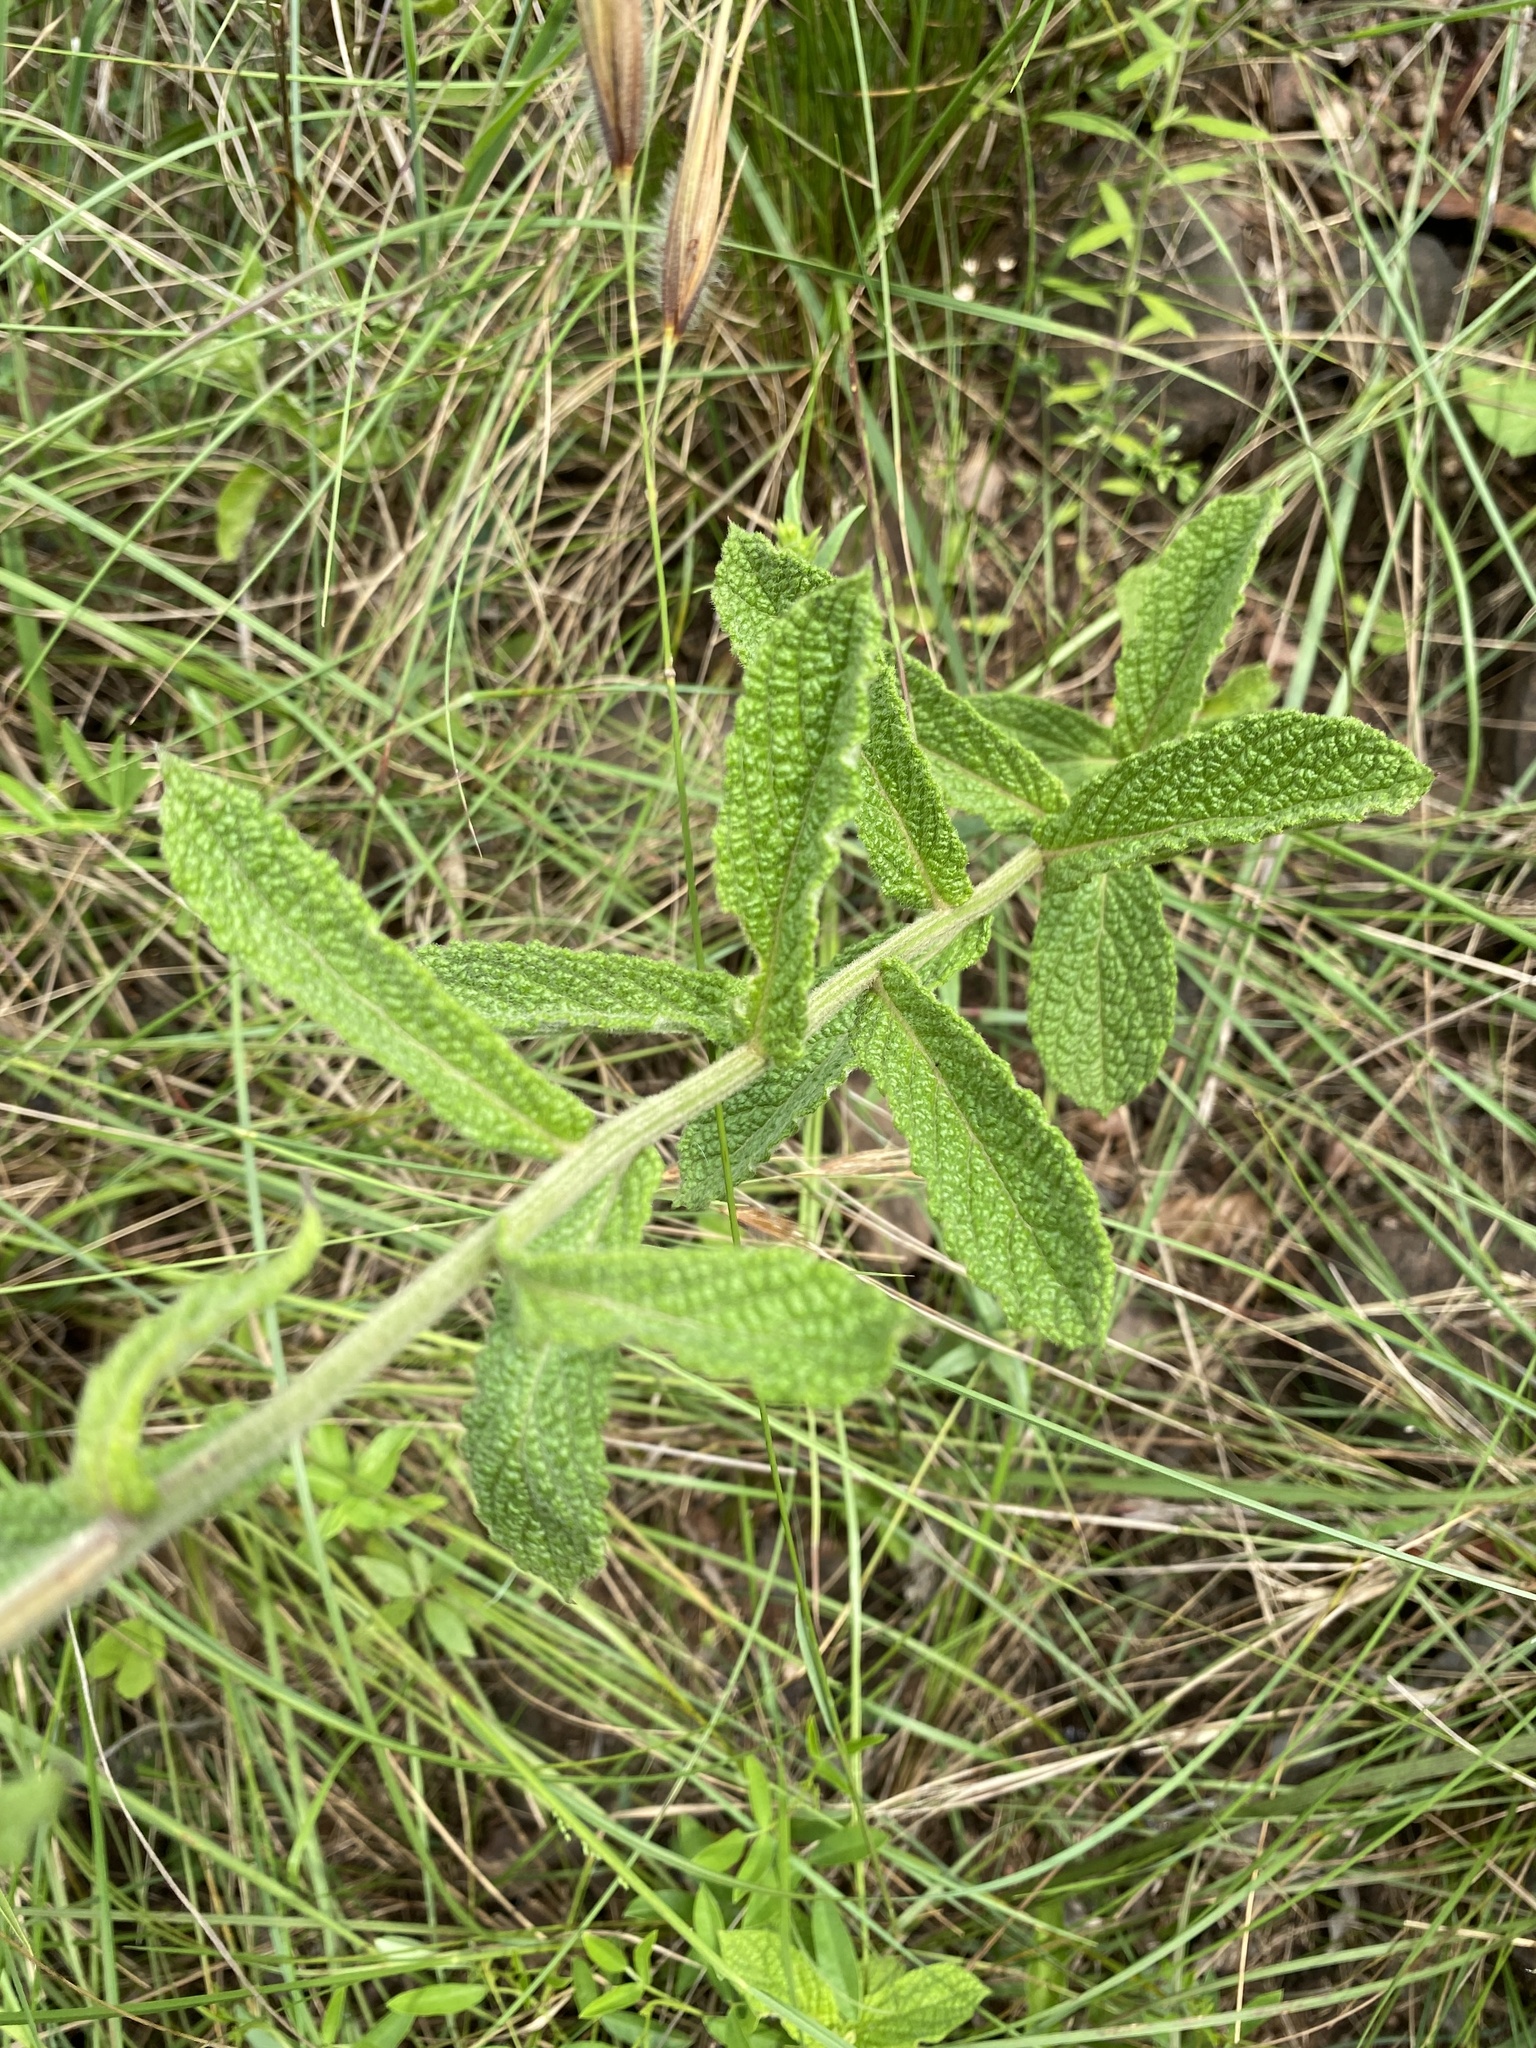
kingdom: Plantae
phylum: Tracheophyta
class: Magnoliopsida
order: Asterales
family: Asteraceae
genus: Hilliardiella
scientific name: Hilliardiella hirsuta
